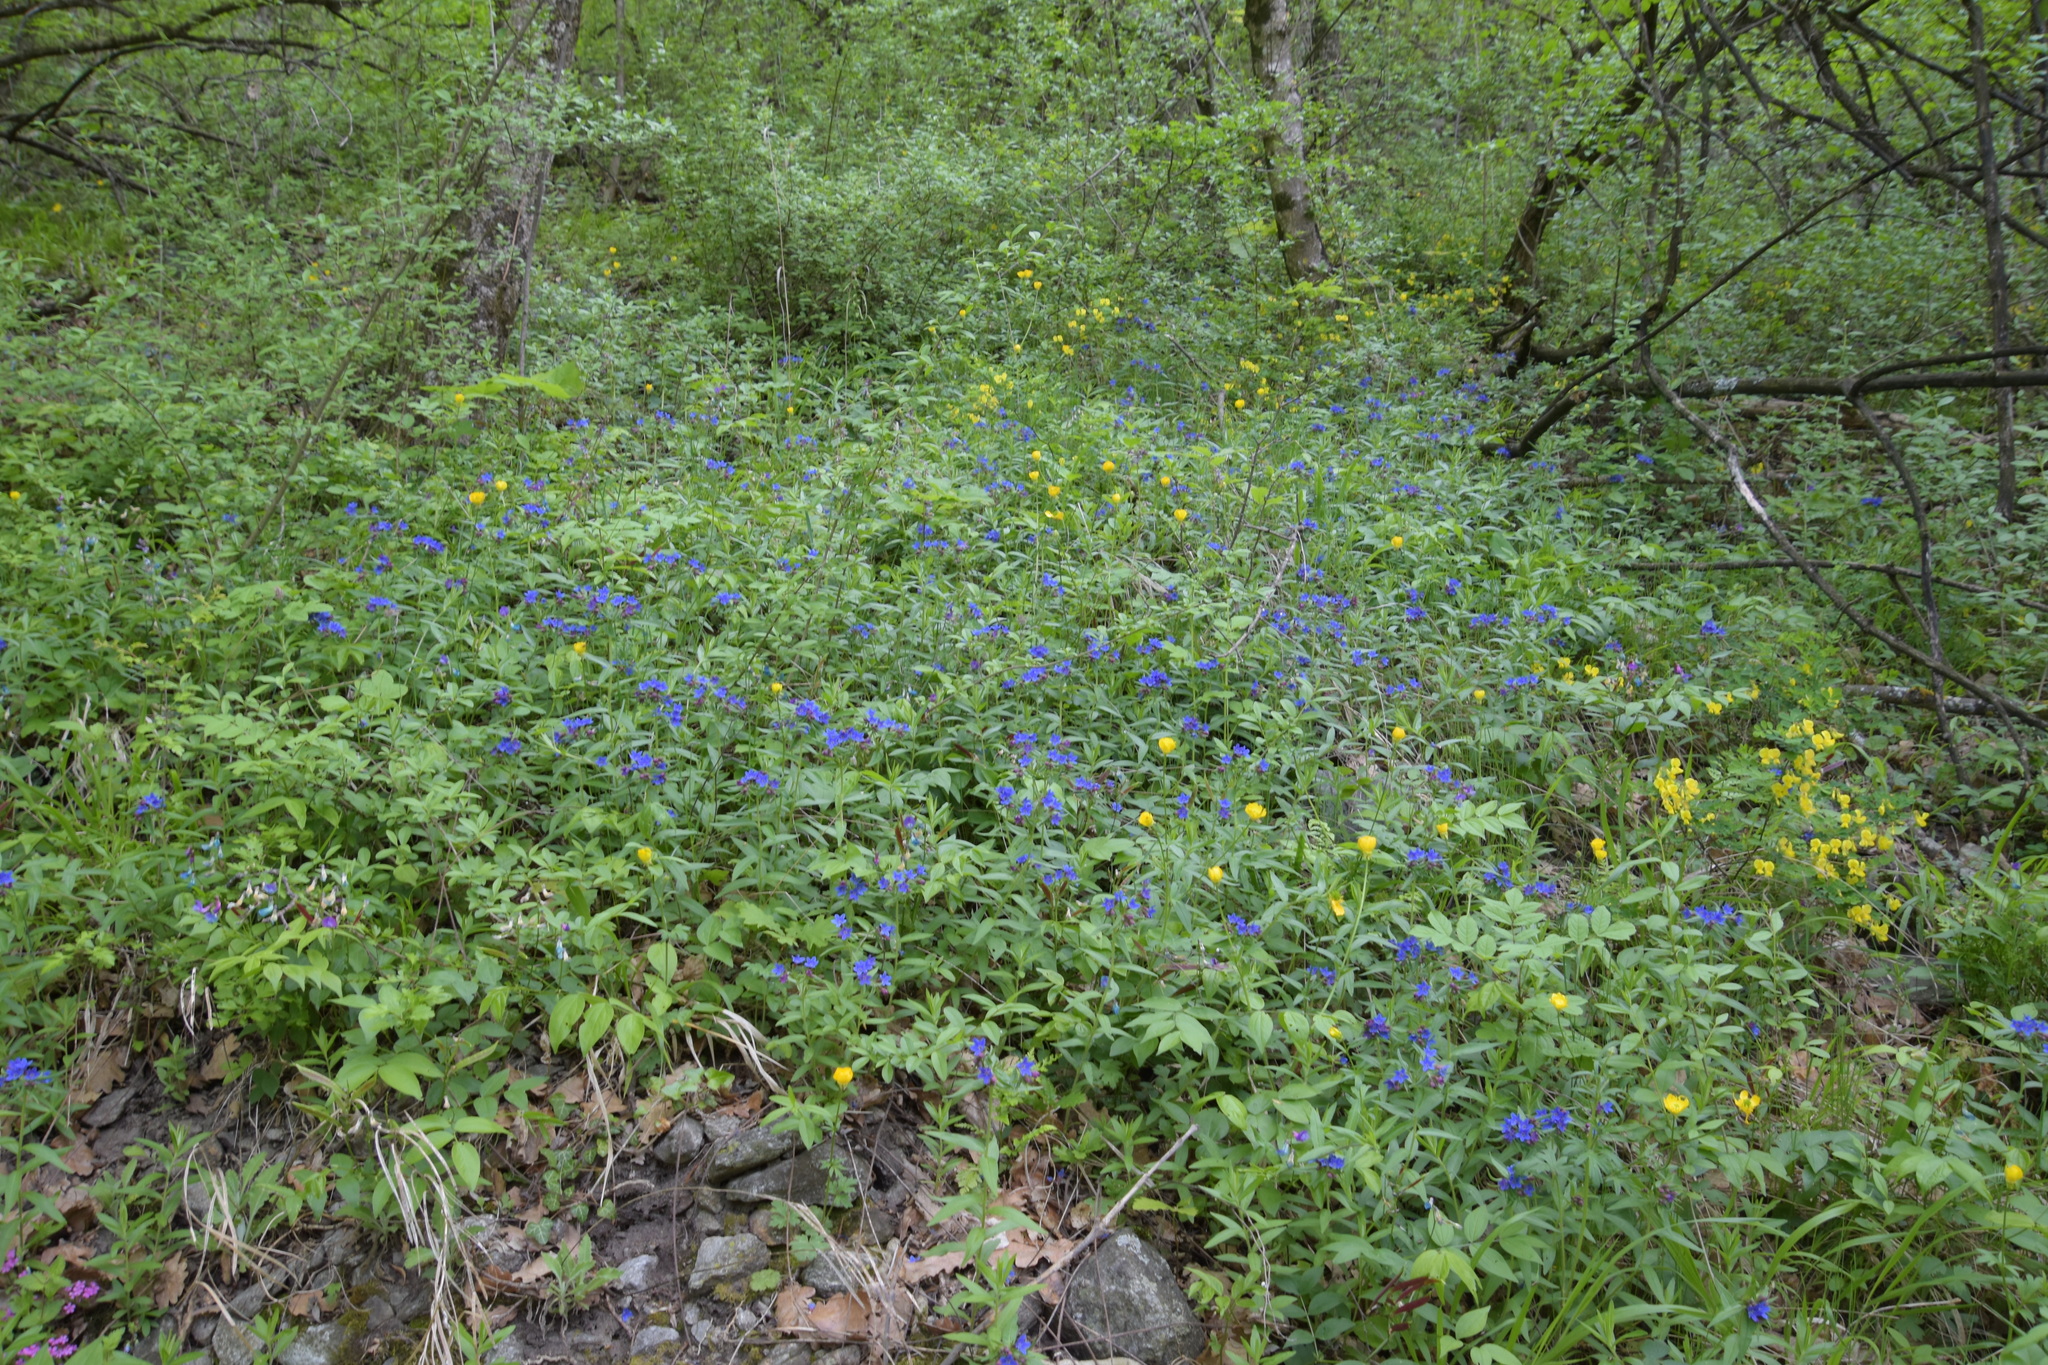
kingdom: Plantae
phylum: Tracheophyta
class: Magnoliopsida
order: Boraginales
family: Boraginaceae
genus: Aegonychon
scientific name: Aegonychon purpurocaeruleum
